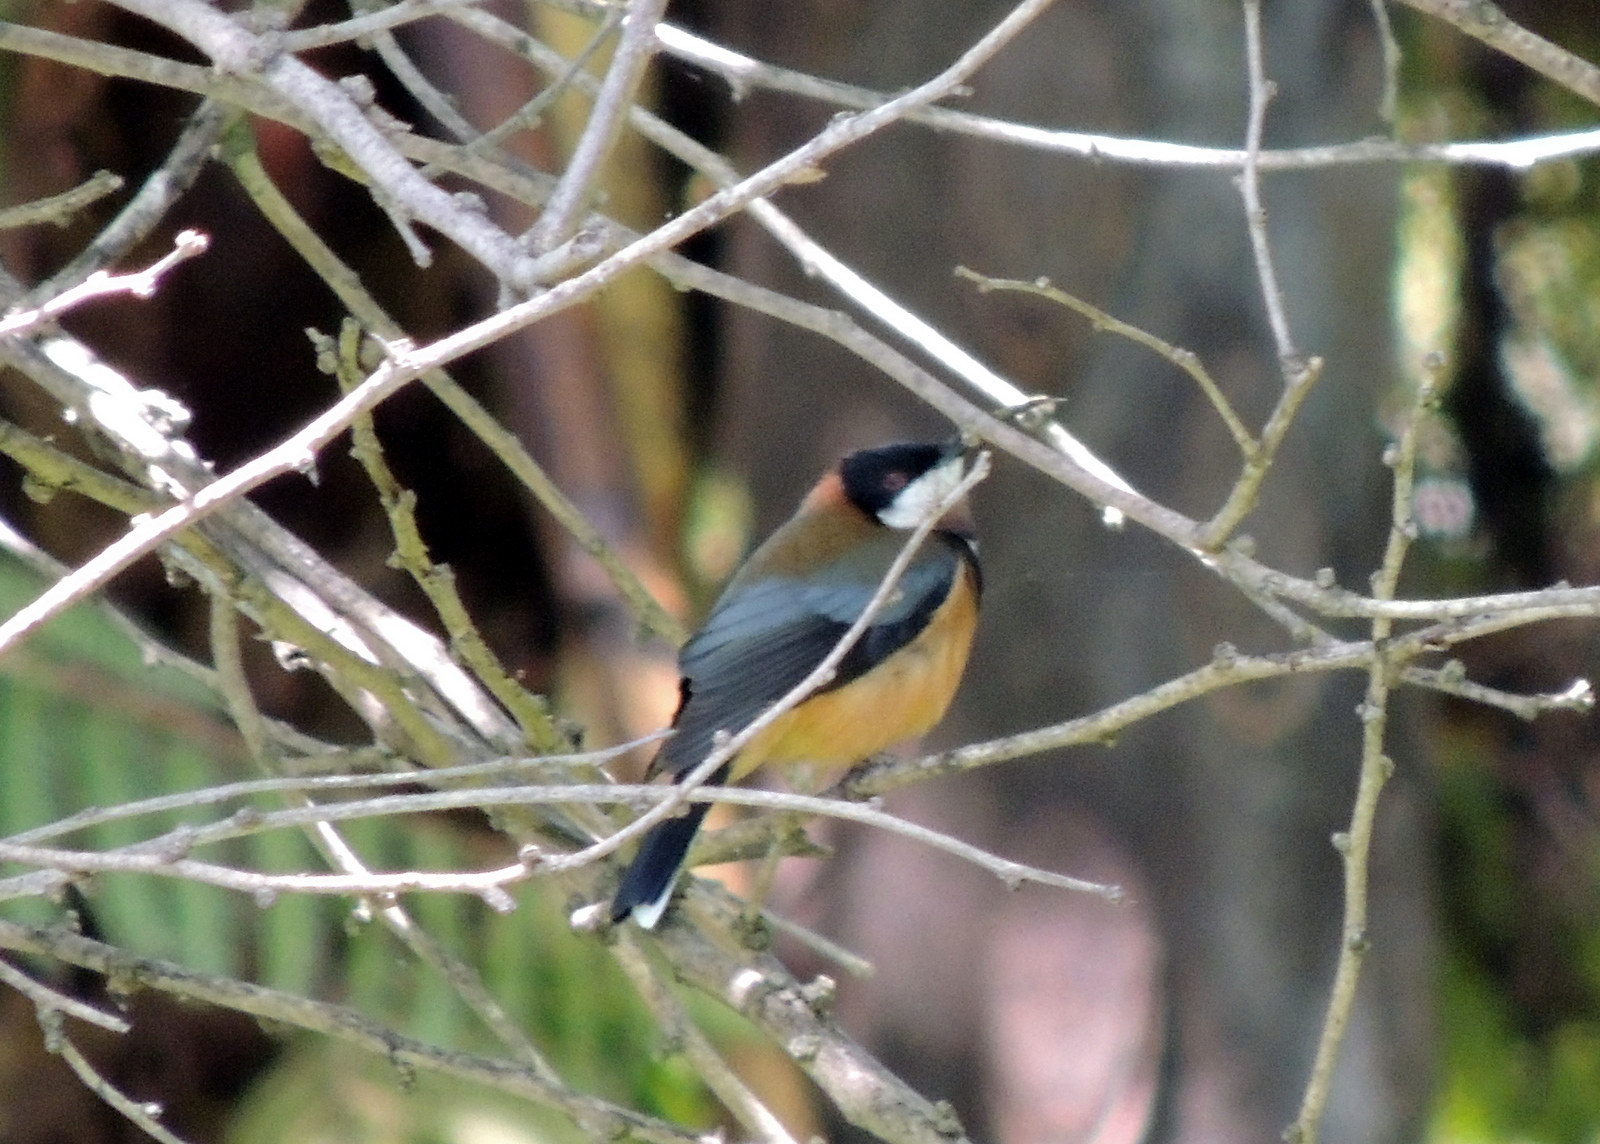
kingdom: Animalia
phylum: Chordata
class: Aves
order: Passeriformes
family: Meliphagidae
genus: Acanthorhynchus
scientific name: Acanthorhynchus tenuirostris
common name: Eastern spinebill
